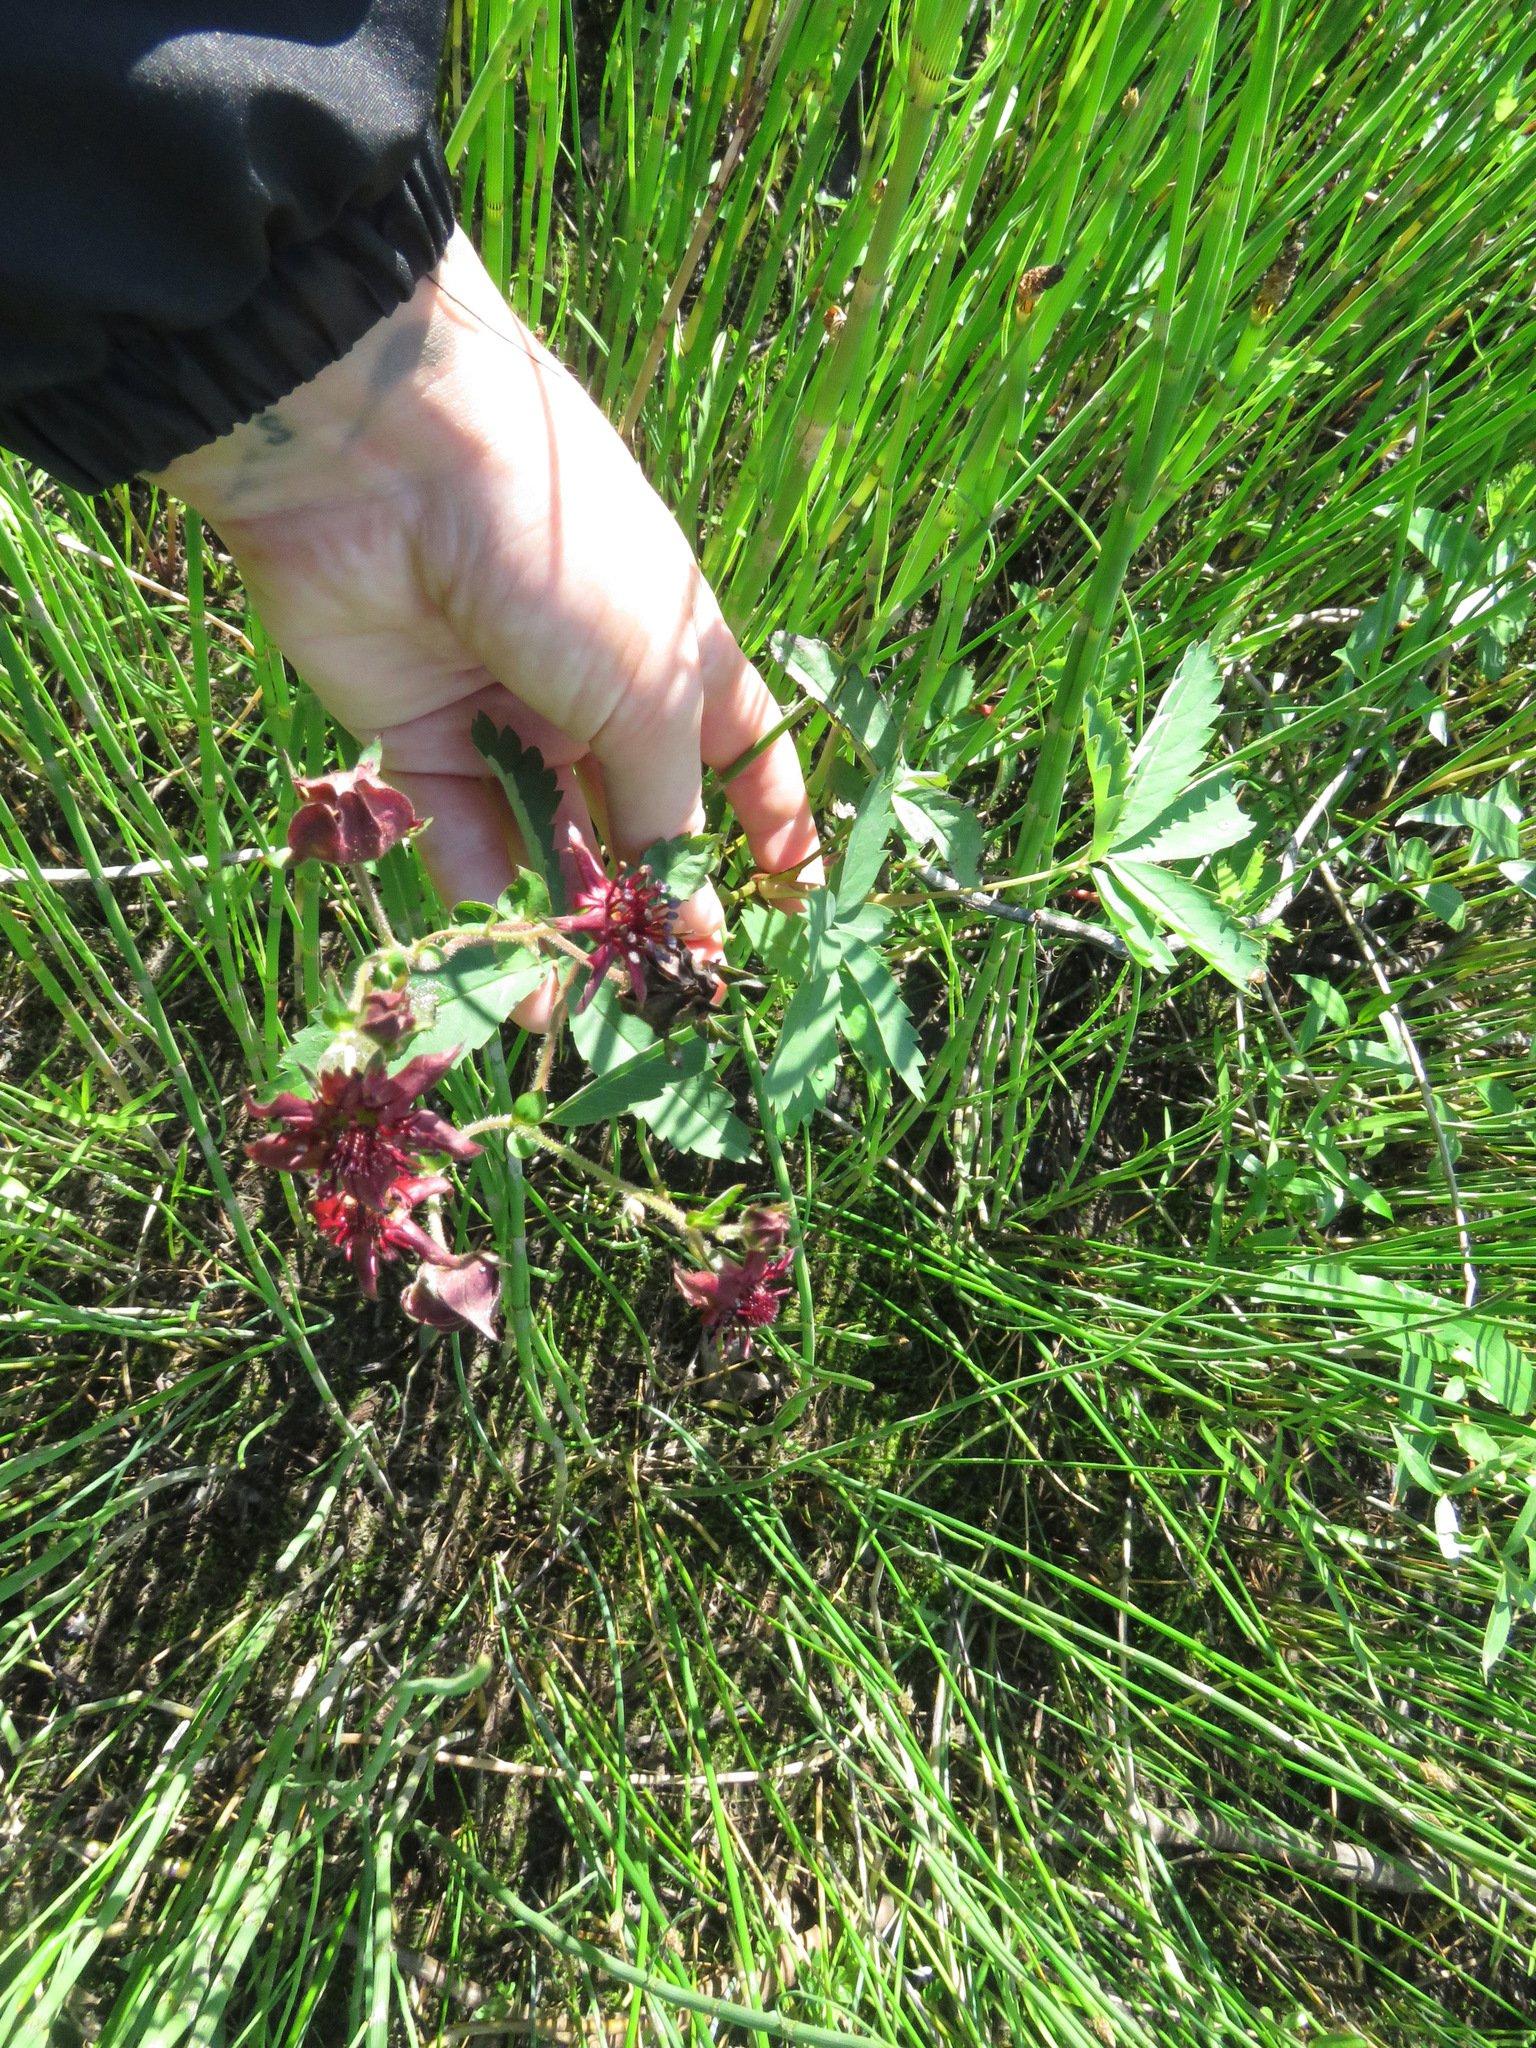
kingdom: Plantae
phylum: Tracheophyta
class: Magnoliopsida
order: Rosales
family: Rosaceae
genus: Comarum
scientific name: Comarum palustre
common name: Marsh cinquefoil
